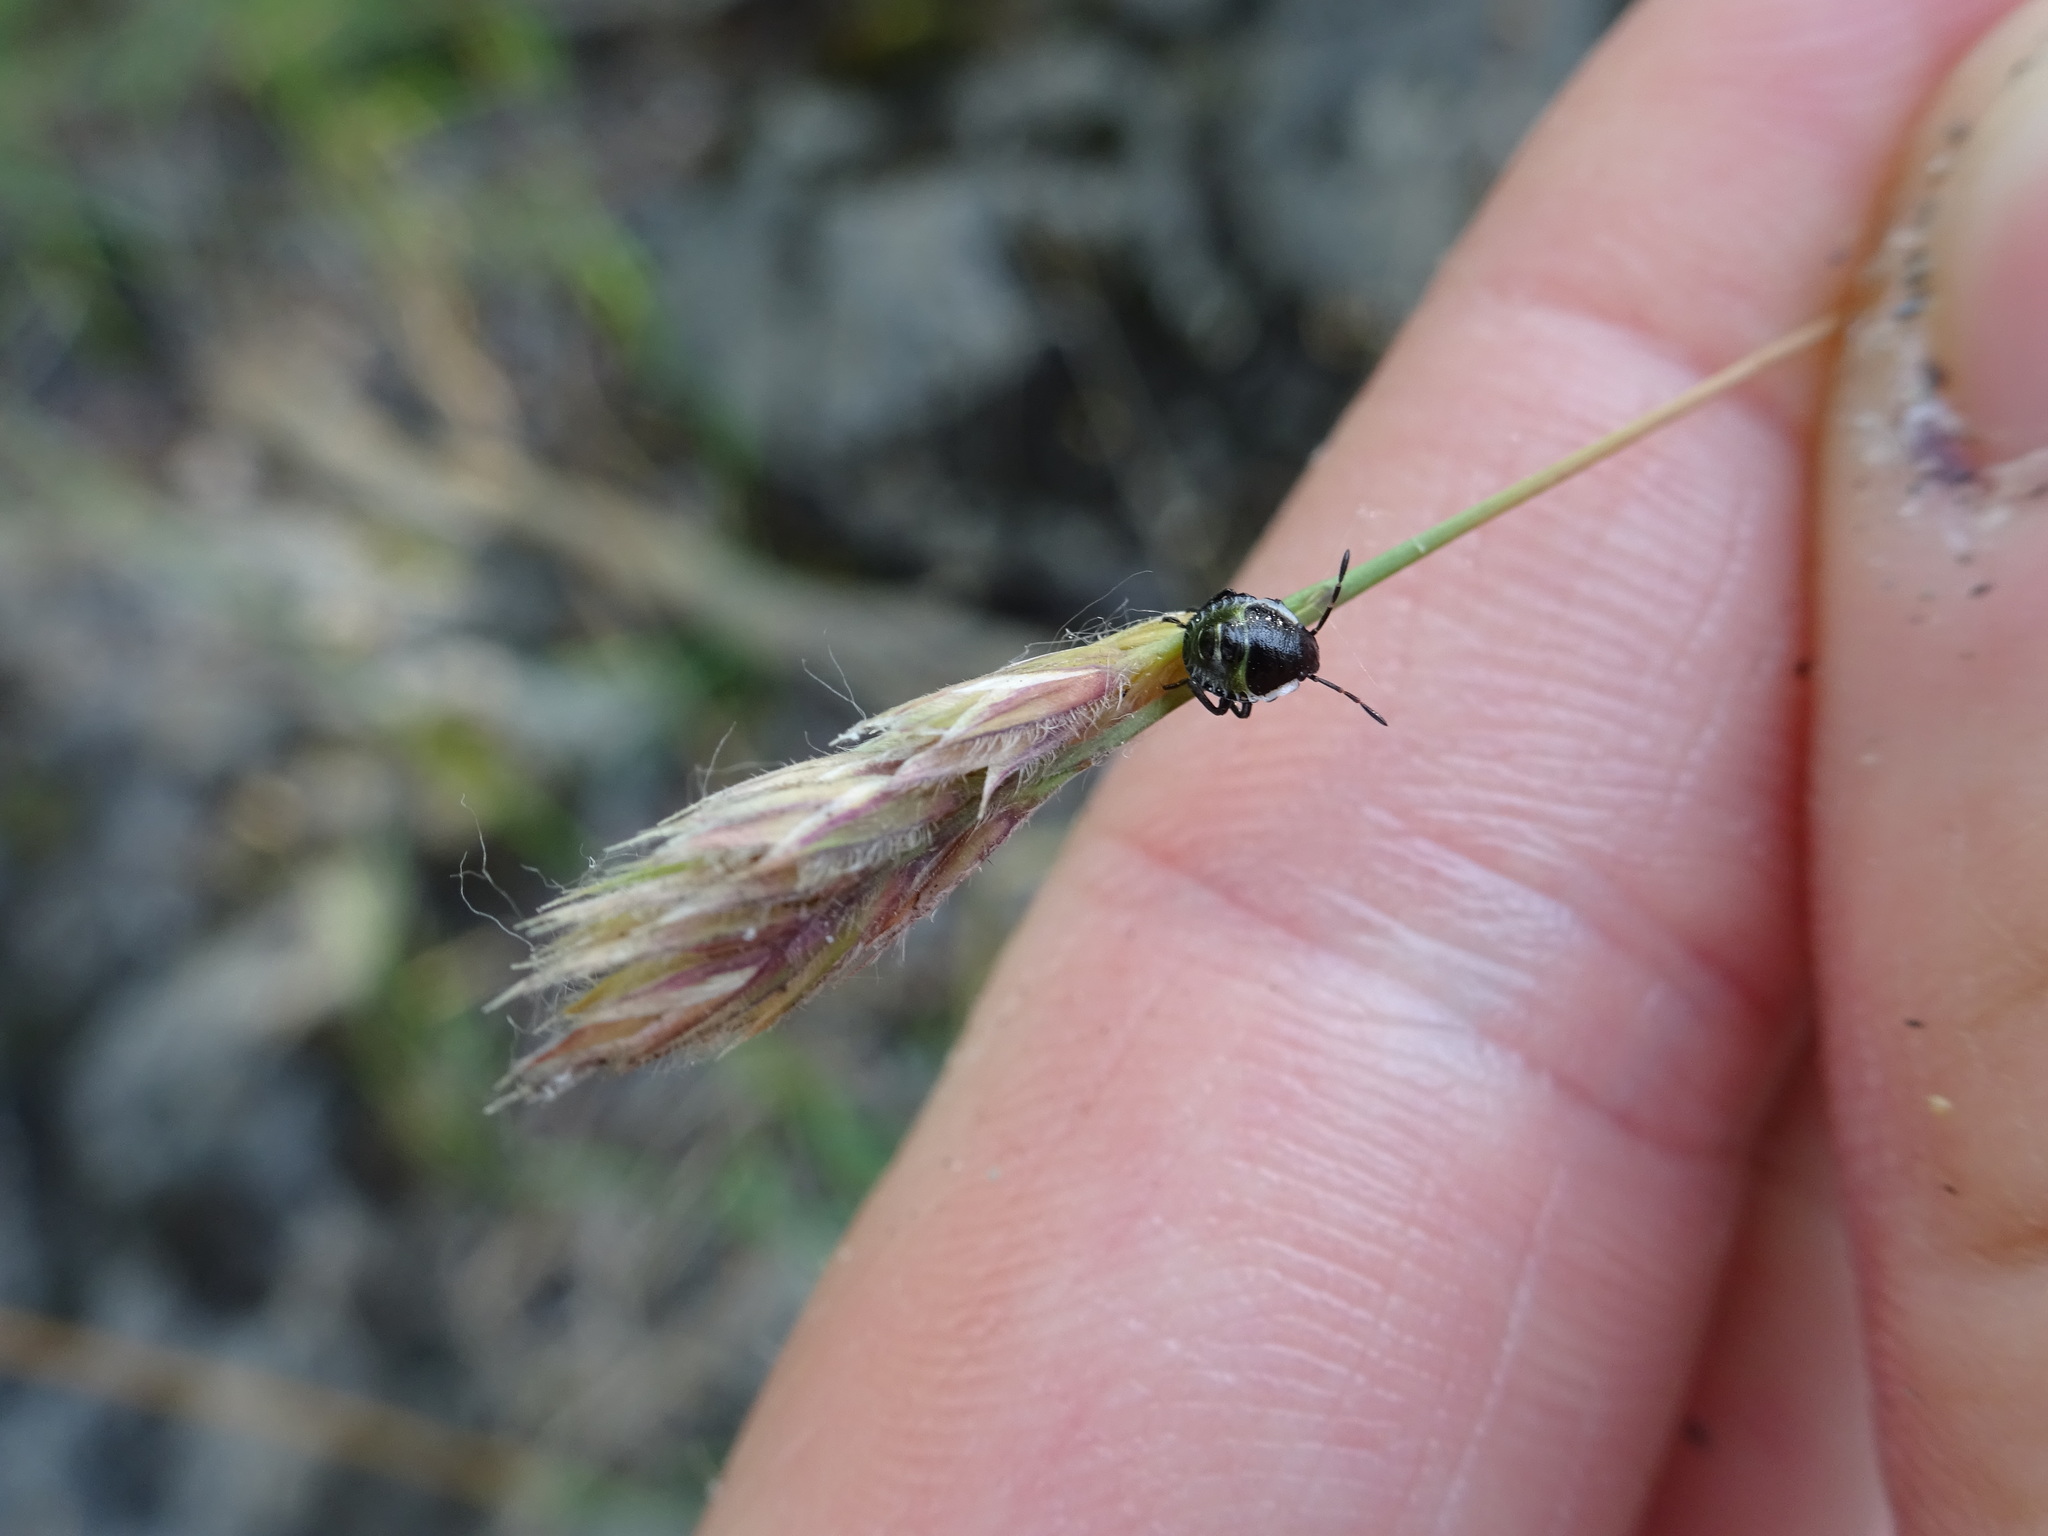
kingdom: Animalia
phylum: Arthropoda
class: Insecta
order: Hemiptera
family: Pentatomidae
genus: Palomena
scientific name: Palomena prasina
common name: Green shieldbug
